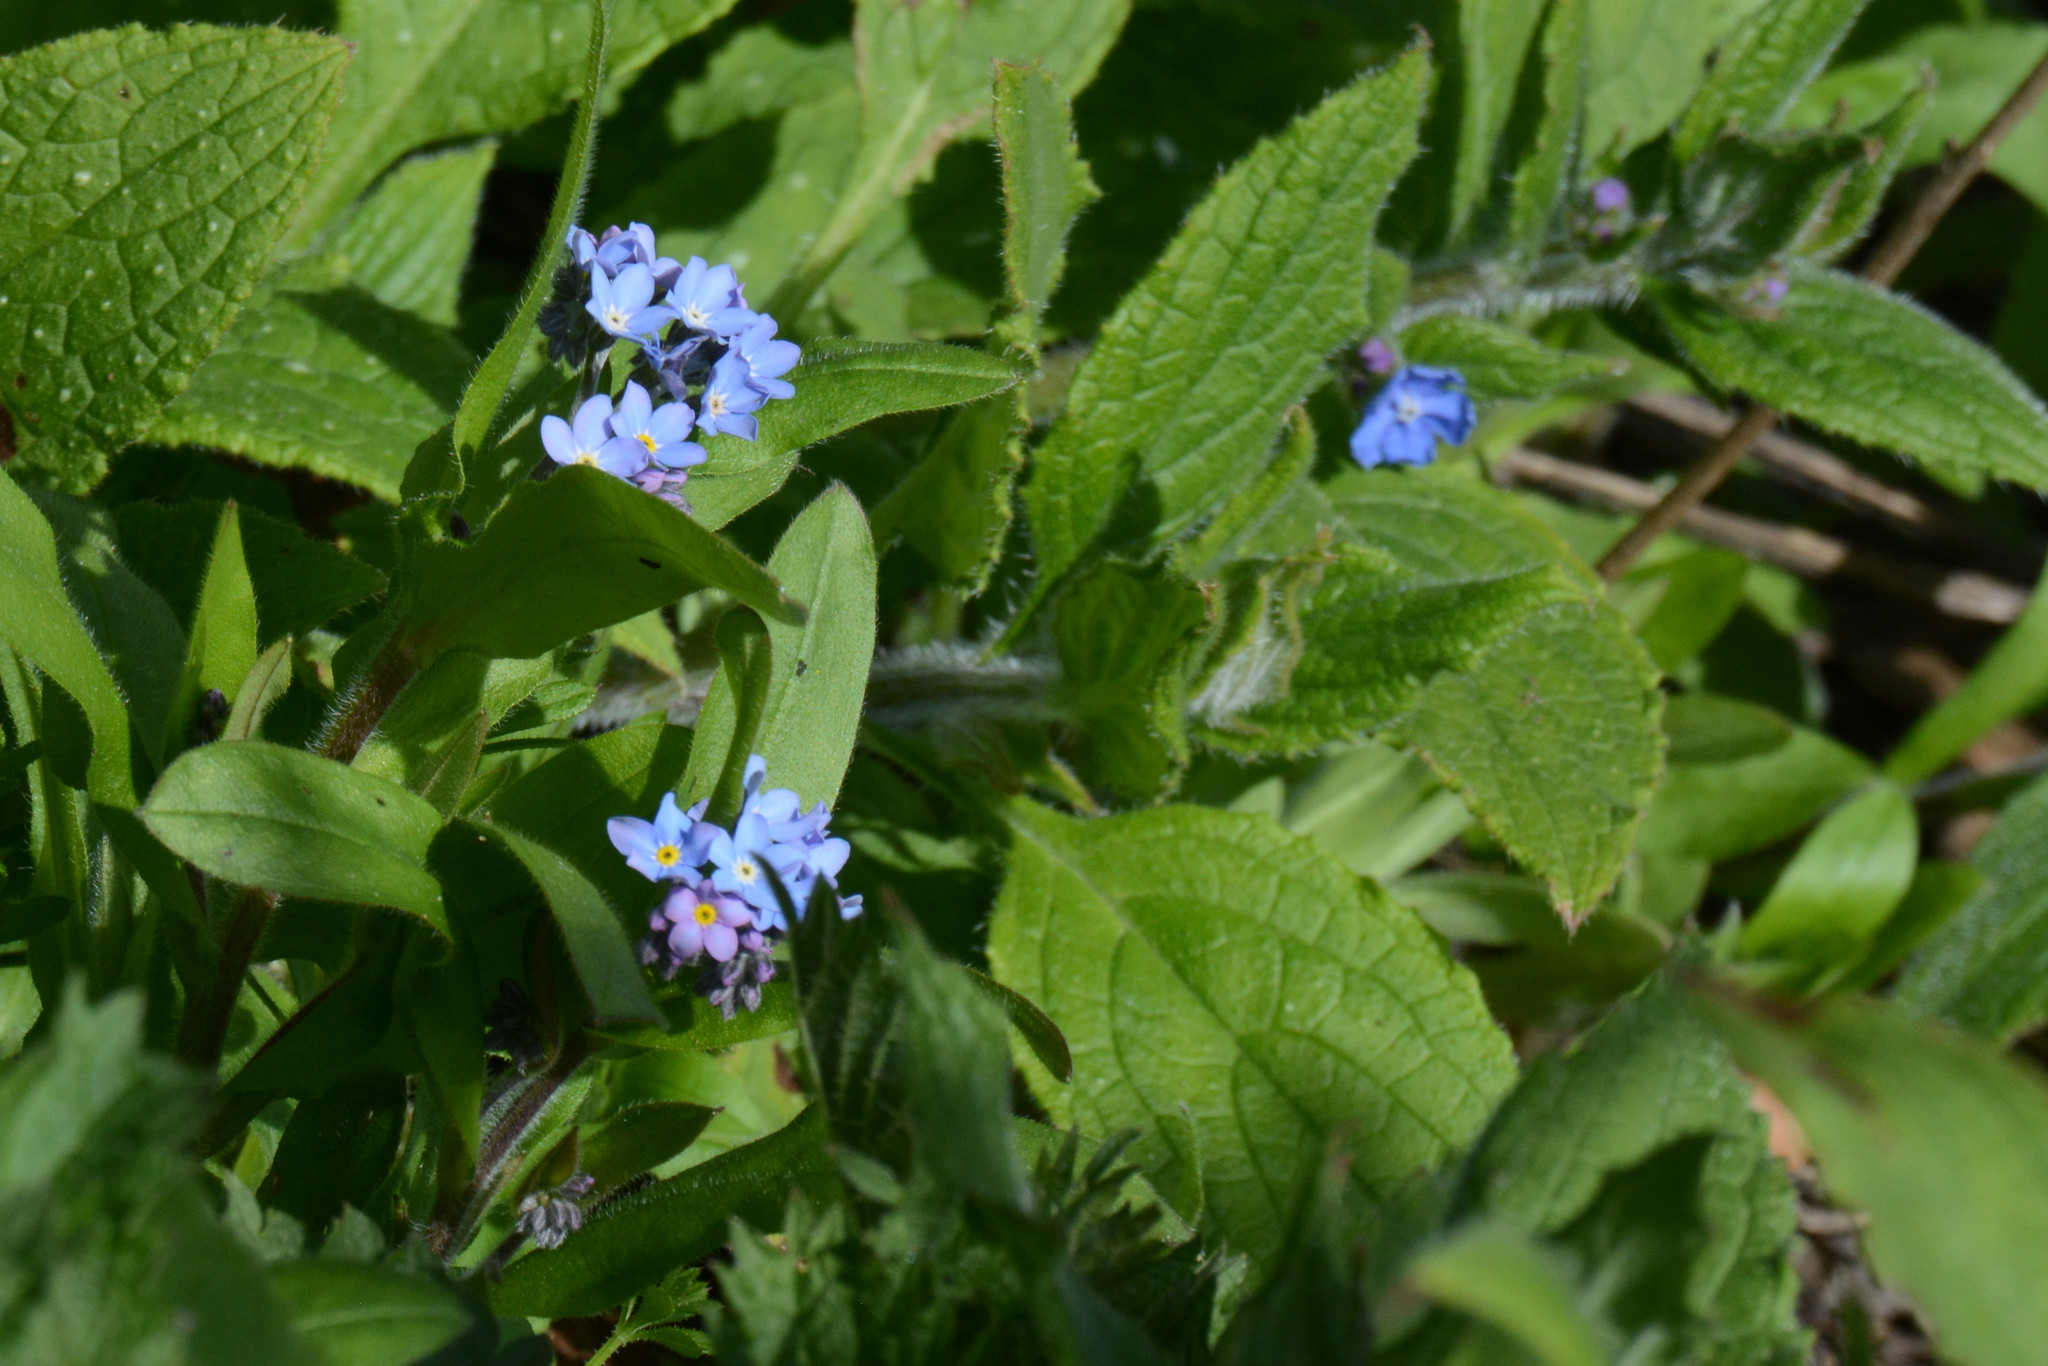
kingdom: Plantae
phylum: Tracheophyta
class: Magnoliopsida
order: Boraginales
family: Boraginaceae
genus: Myosotis
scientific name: Myosotis sylvatica
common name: Wood forget-me-not
